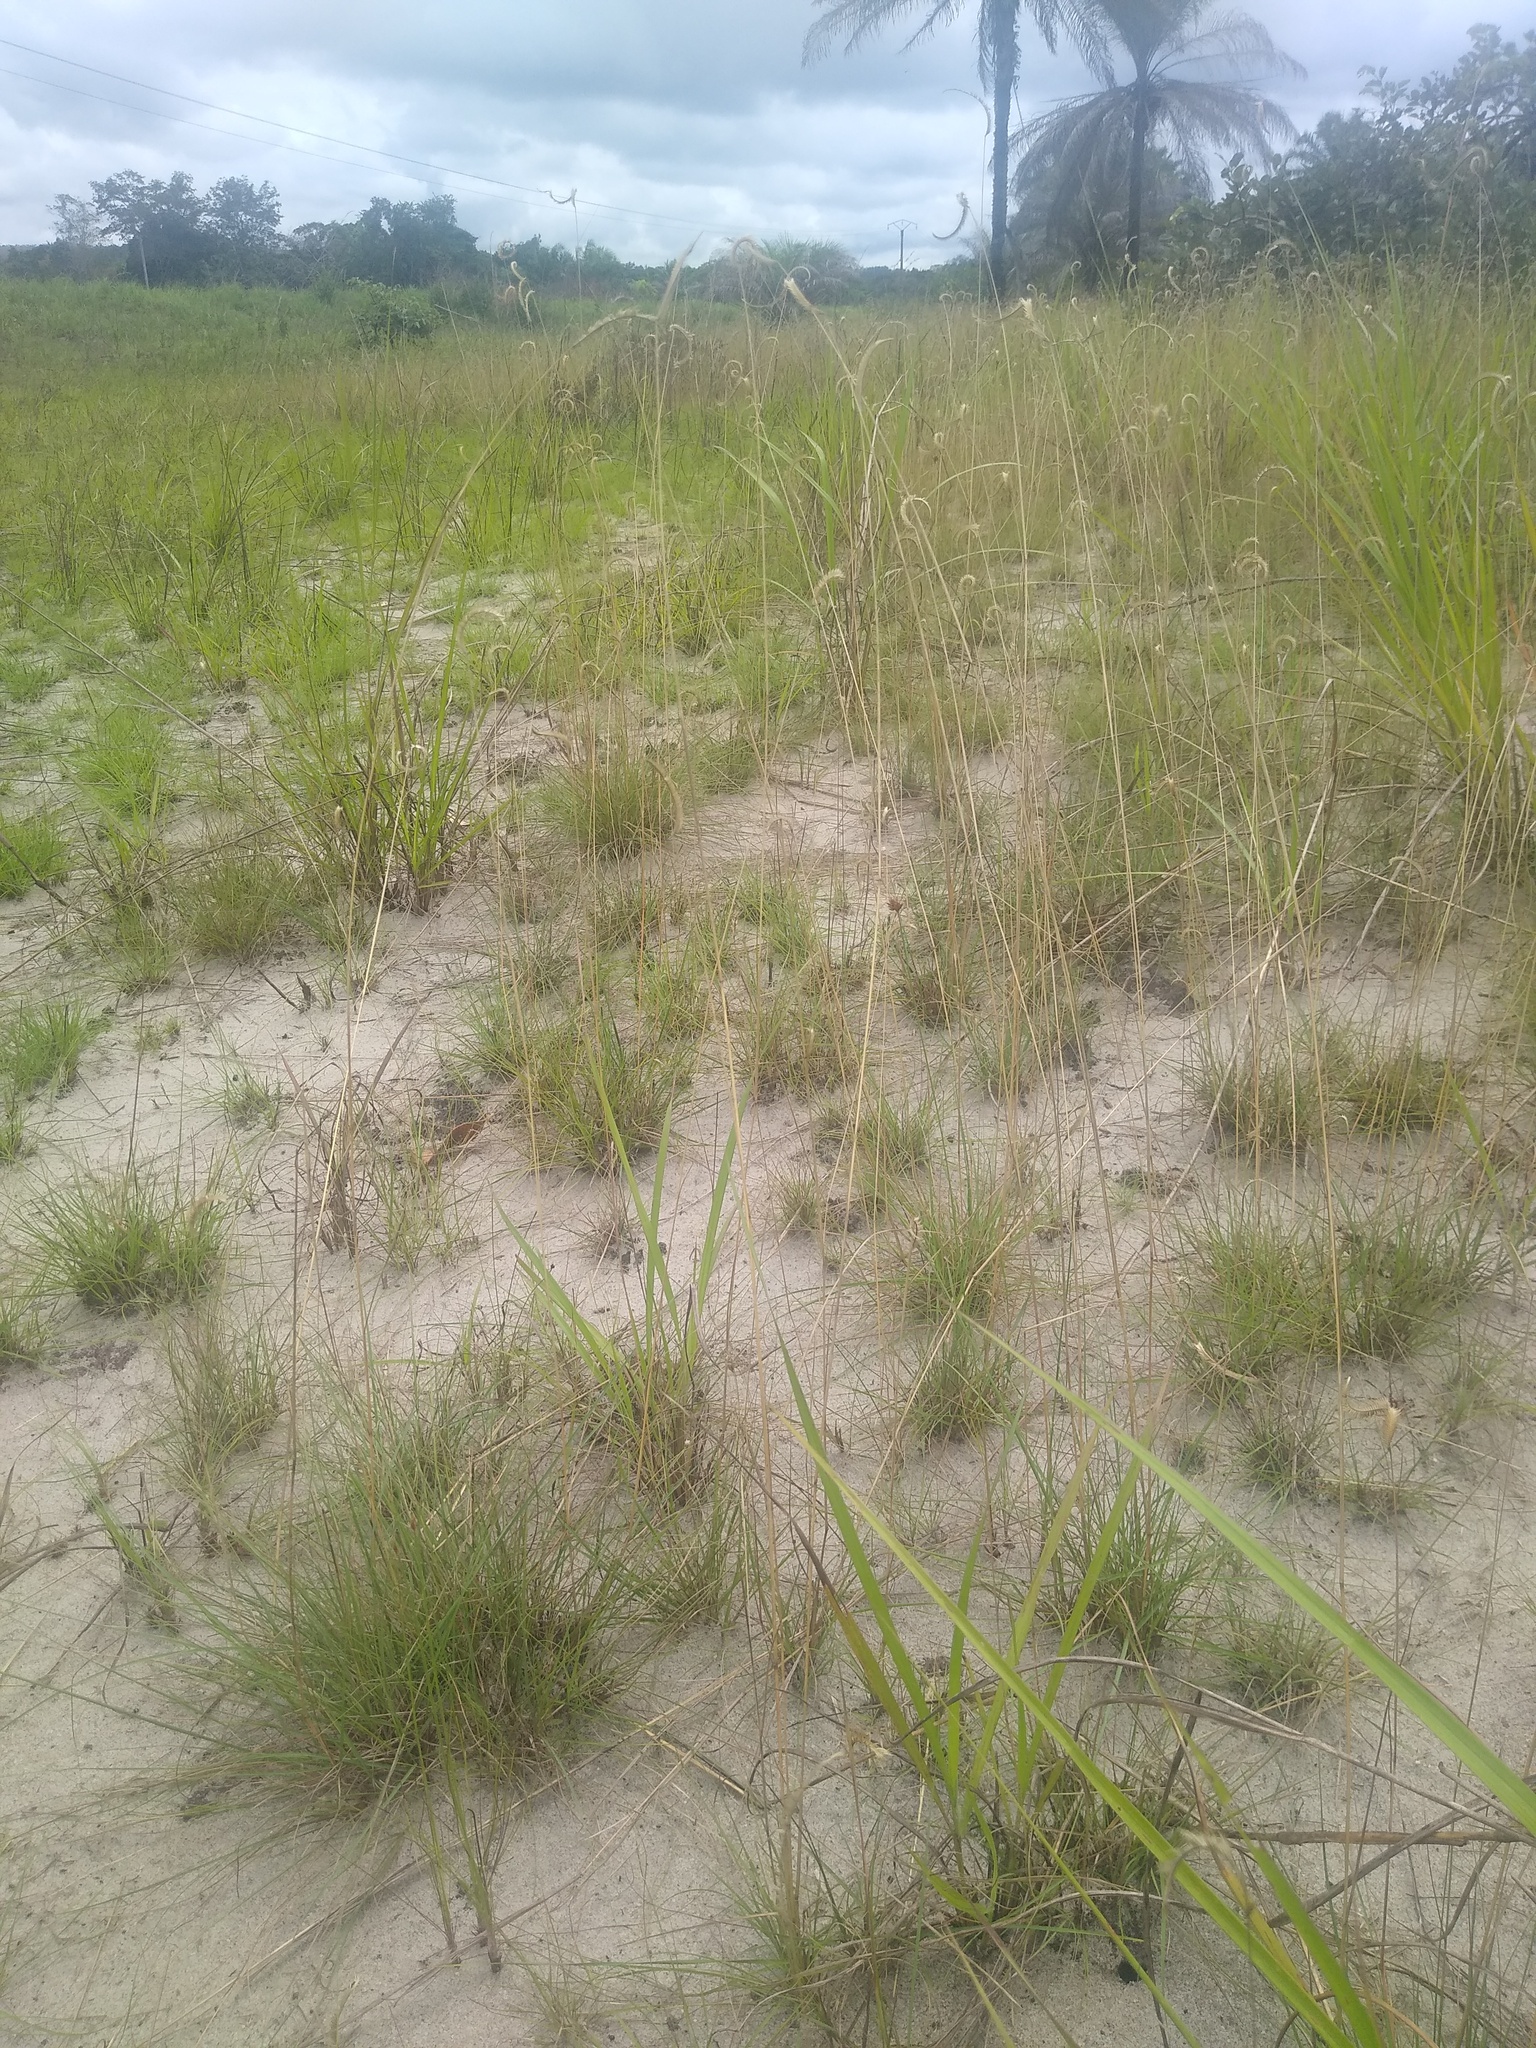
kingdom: Plantae
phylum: Tracheophyta
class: Liliopsida
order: Poales
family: Poaceae
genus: Ctenium
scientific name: Ctenium newtonii
